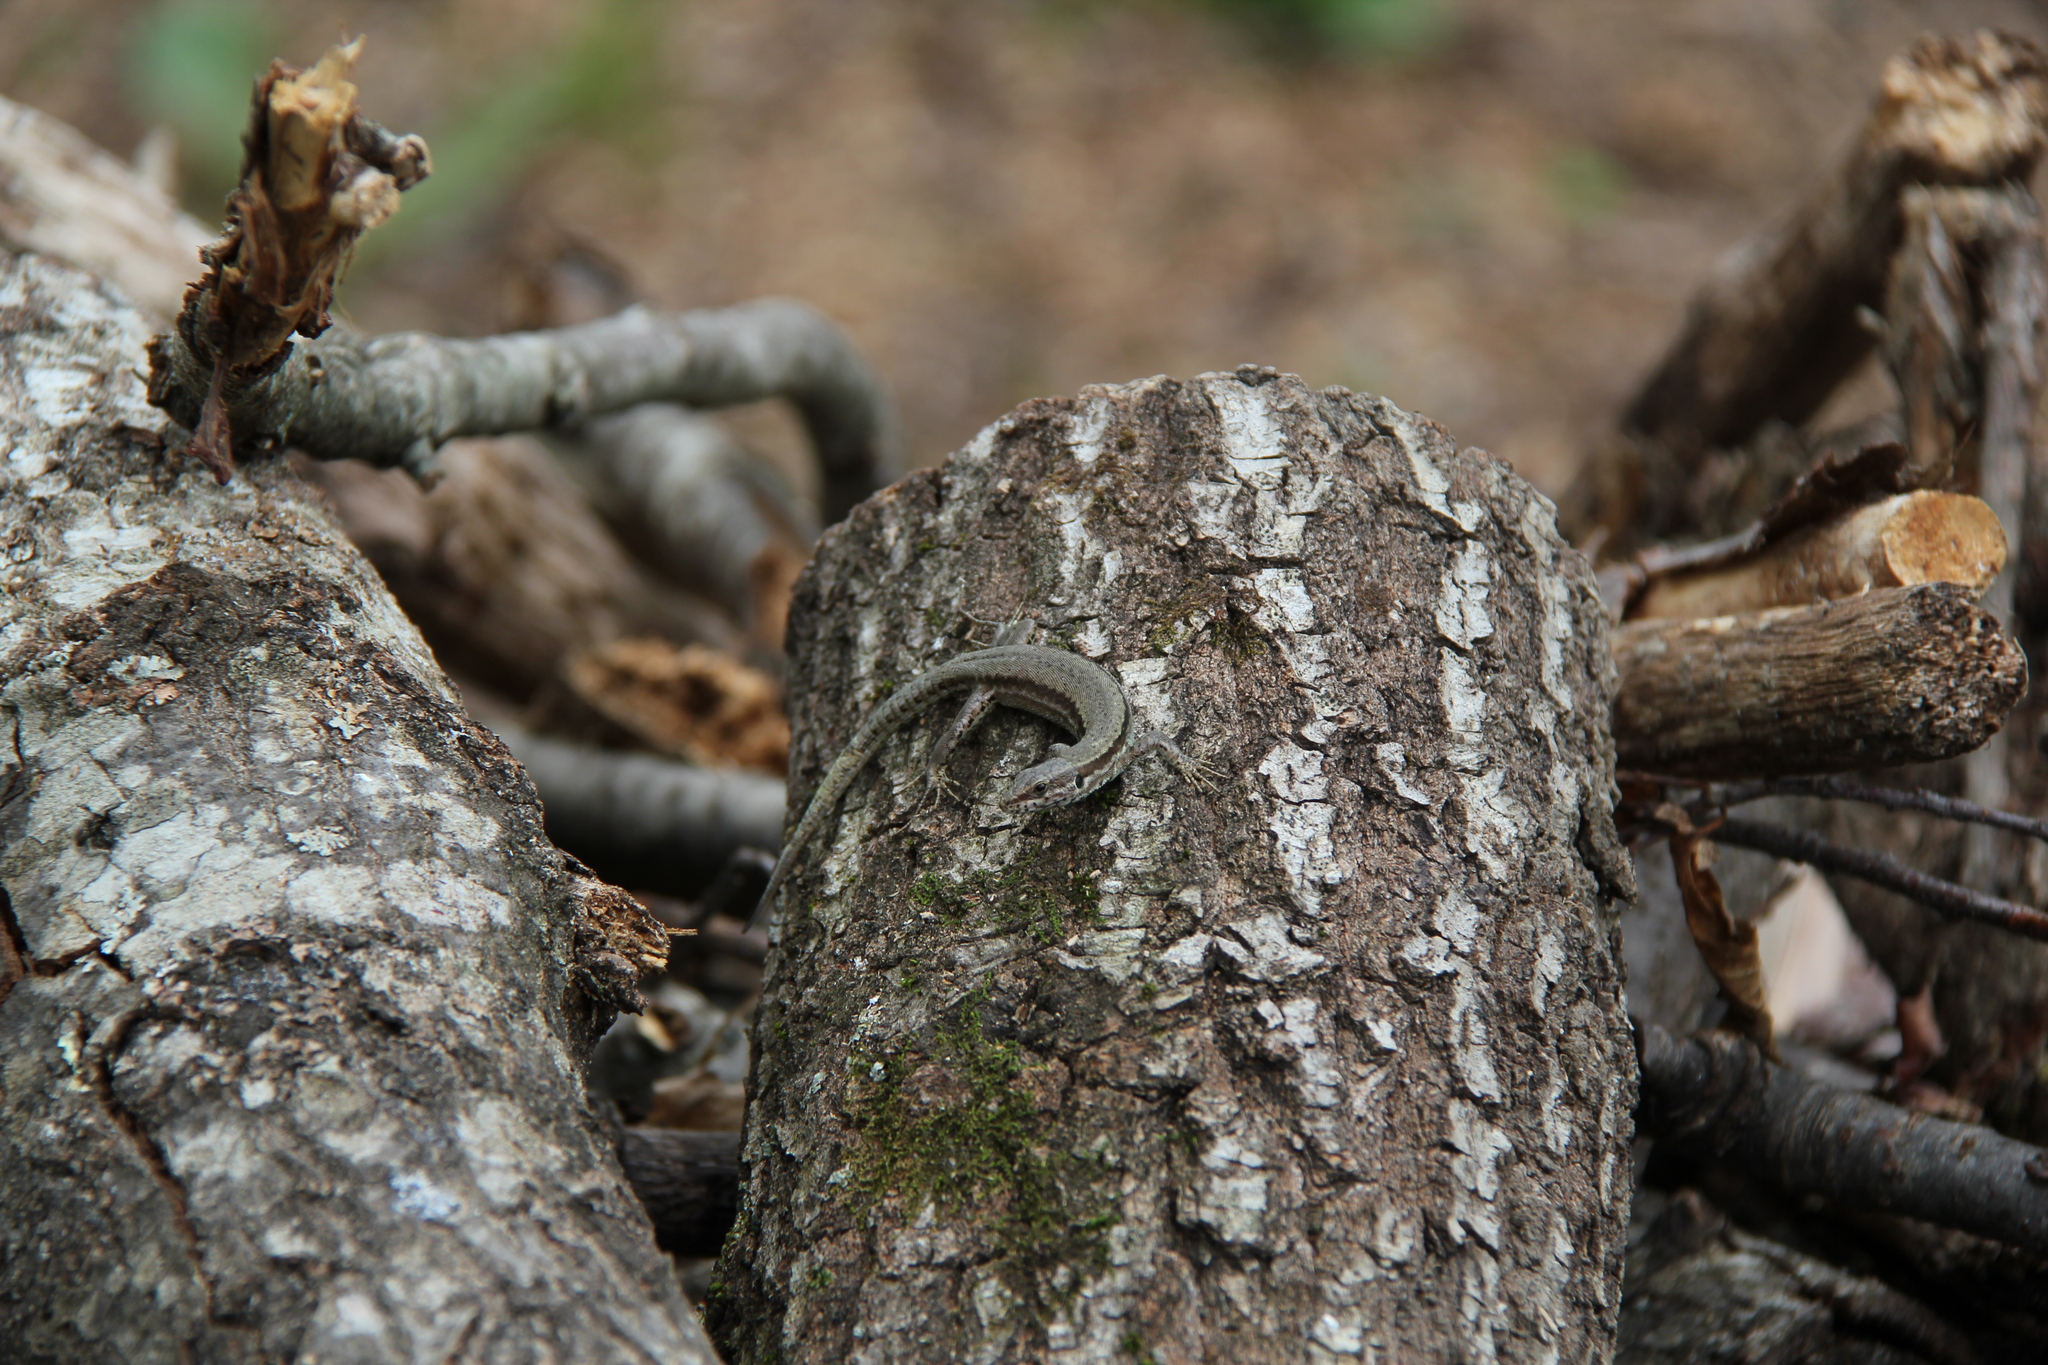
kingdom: Animalia
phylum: Chordata
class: Squamata
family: Lacertidae
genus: Podarcis
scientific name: Podarcis muralis
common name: Common wall lizard
